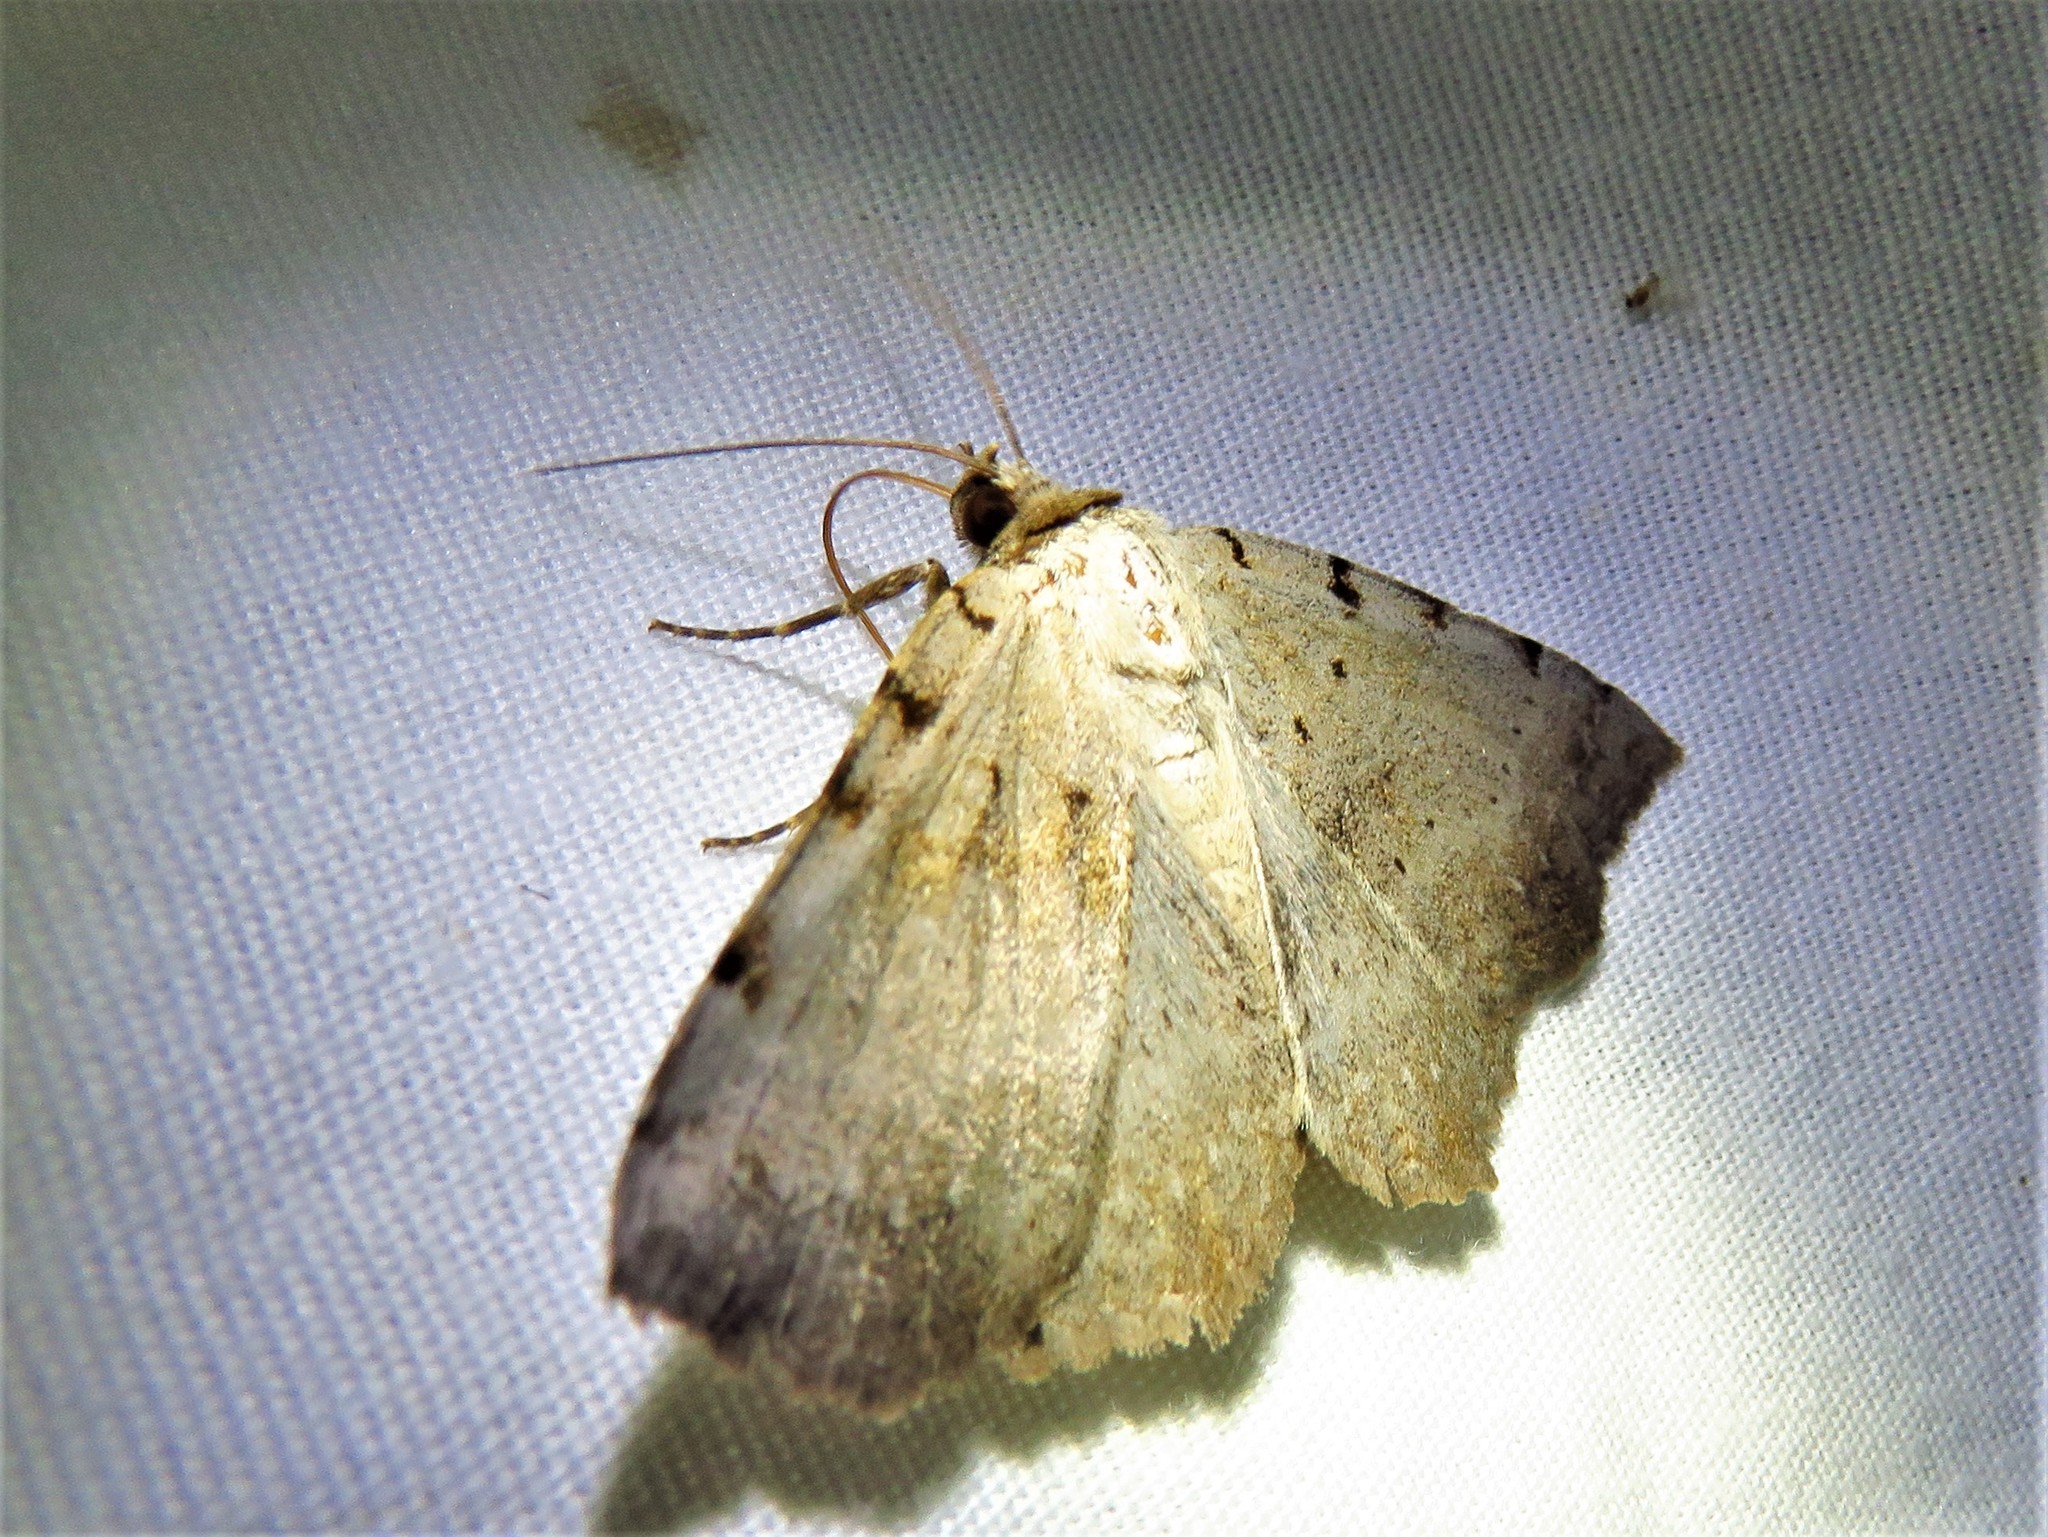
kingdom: Animalia
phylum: Arthropoda
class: Insecta
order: Lepidoptera
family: Erebidae
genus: Spiloloma
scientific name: Spiloloma lunilinea
